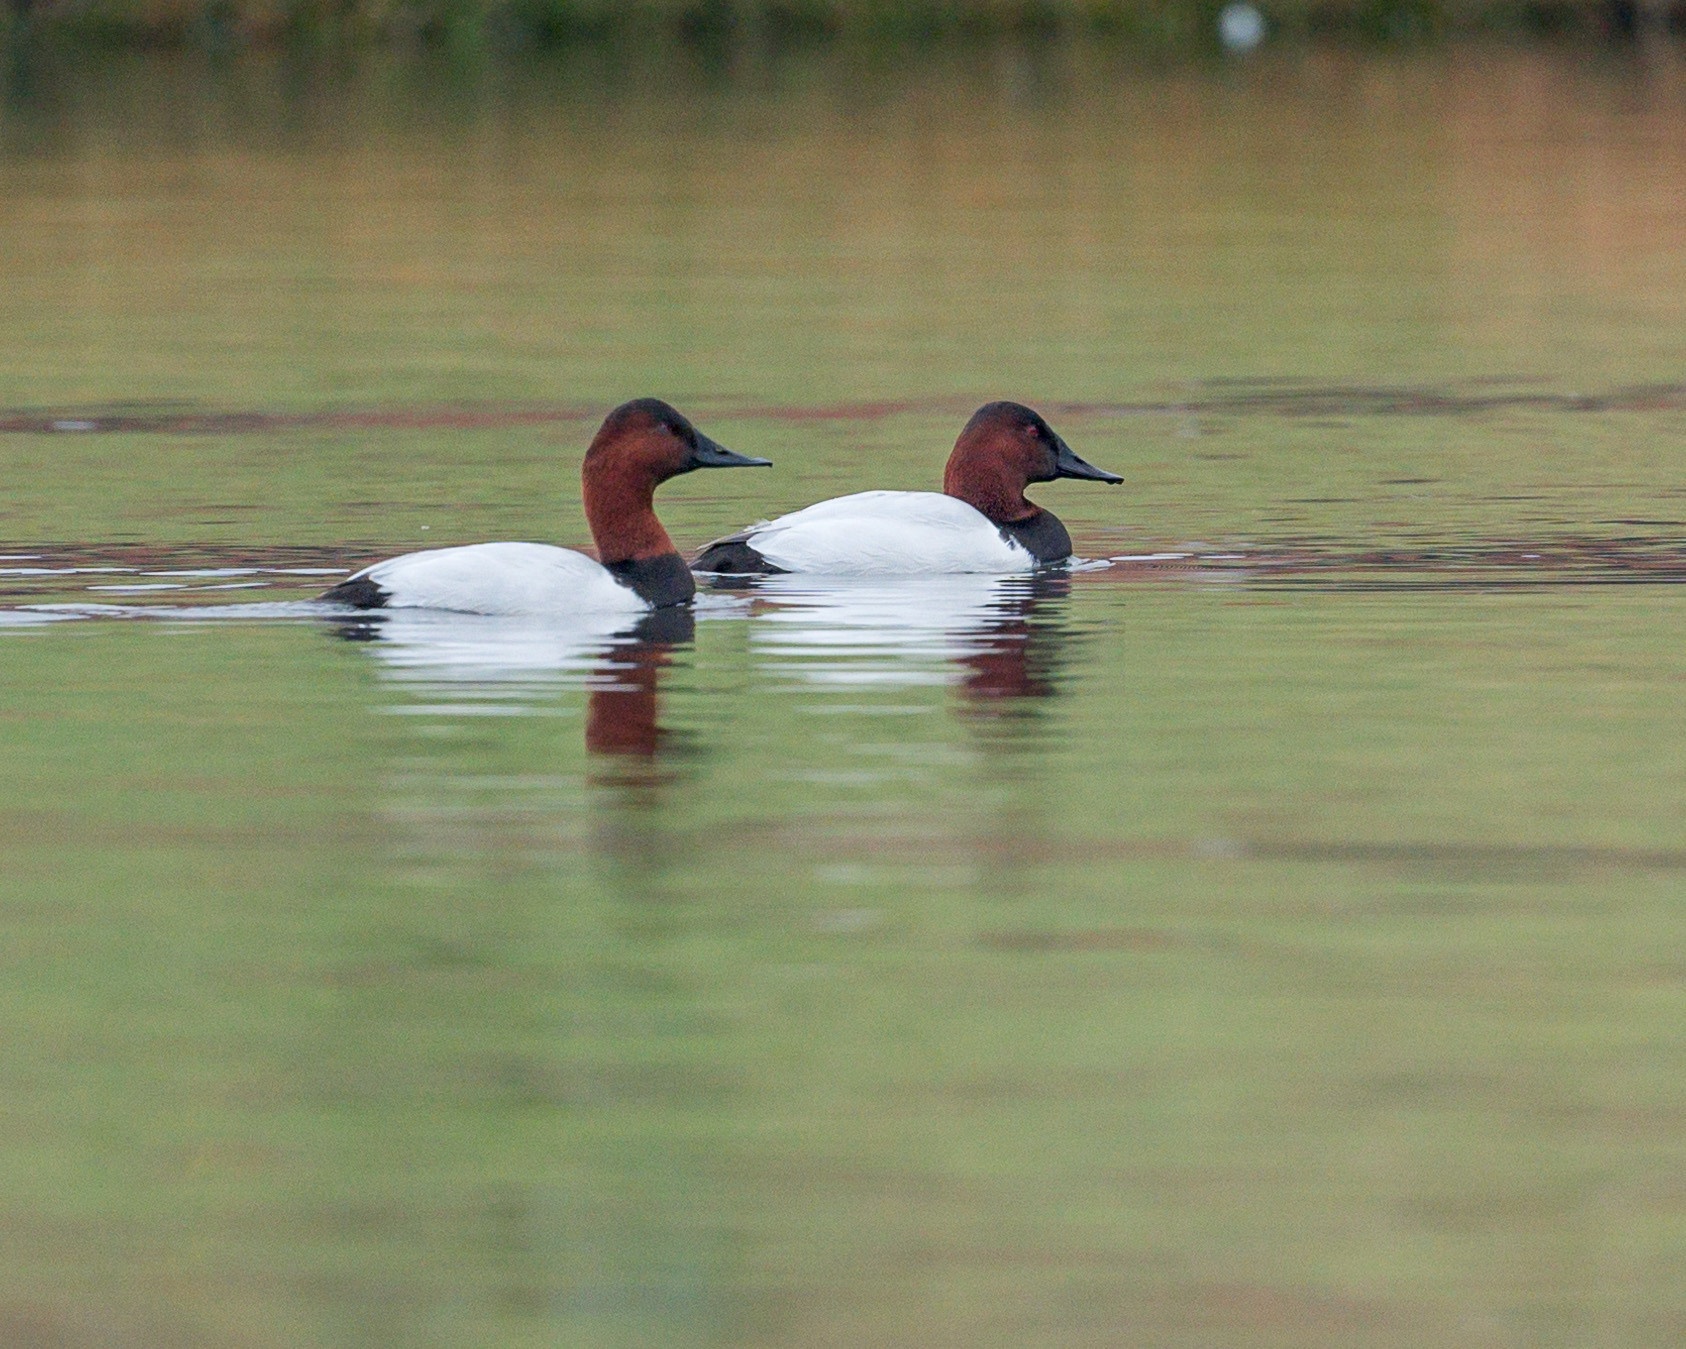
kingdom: Animalia
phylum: Chordata
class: Aves
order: Anseriformes
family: Anatidae
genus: Aythya
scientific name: Aythya valisineria
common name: Canvasback
